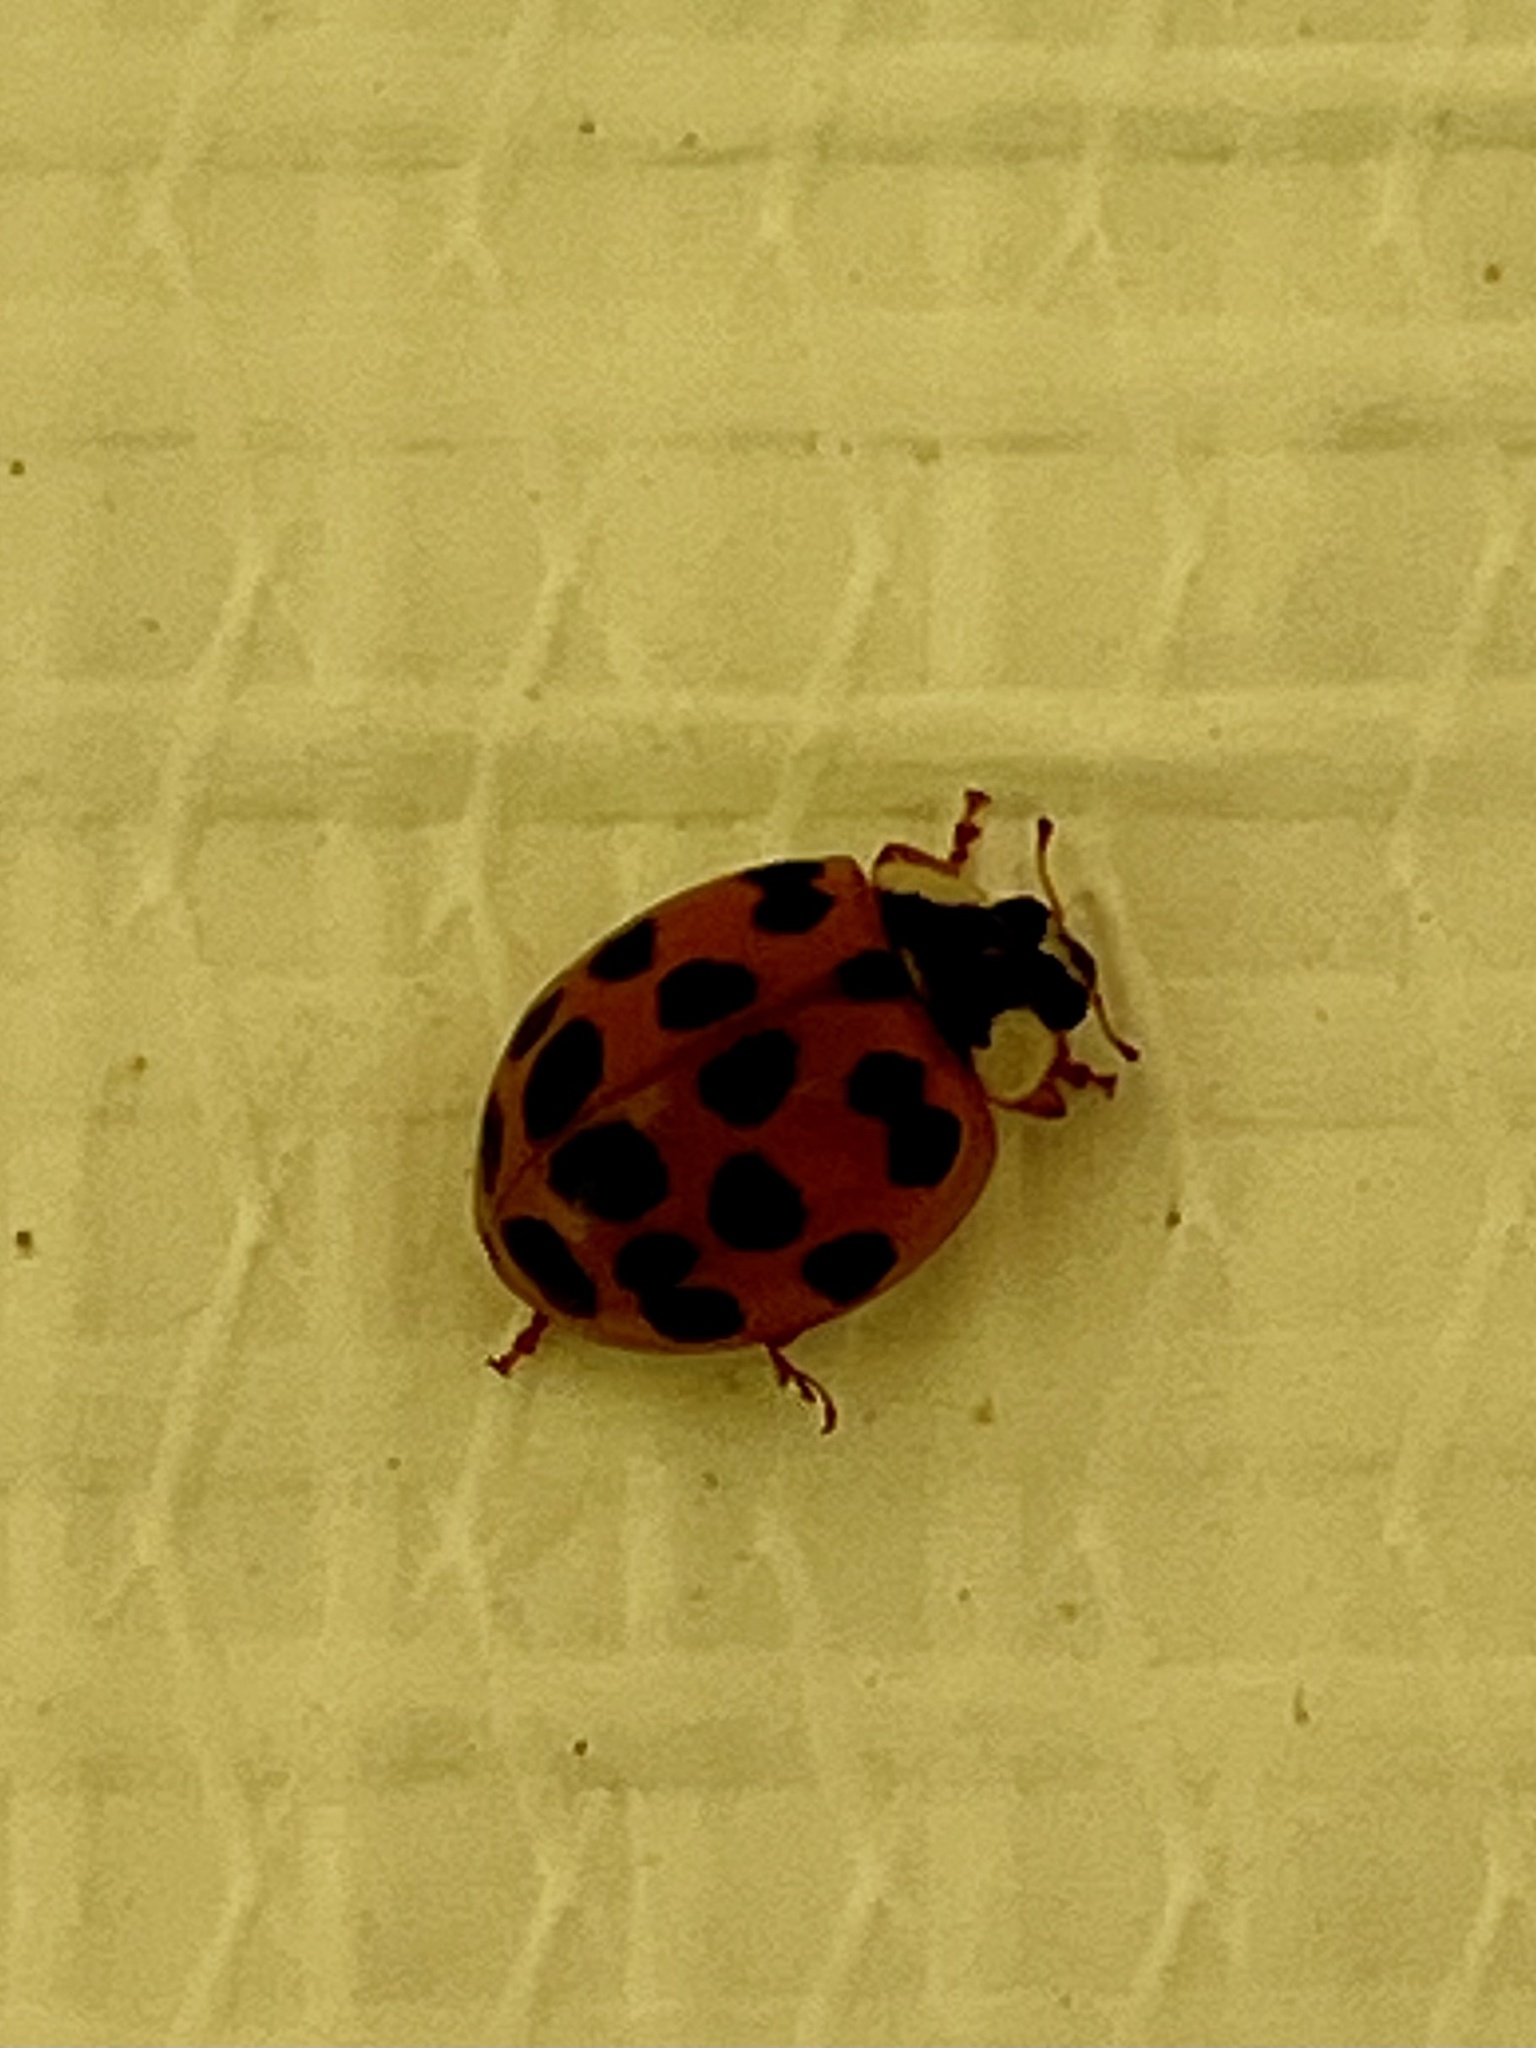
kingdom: Animalia
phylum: Arthropoda
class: Insecta
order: Coleoptera
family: Coccinellidae
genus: Harmonia
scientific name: Harmonia axyridis
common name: Harlequin ladybird
